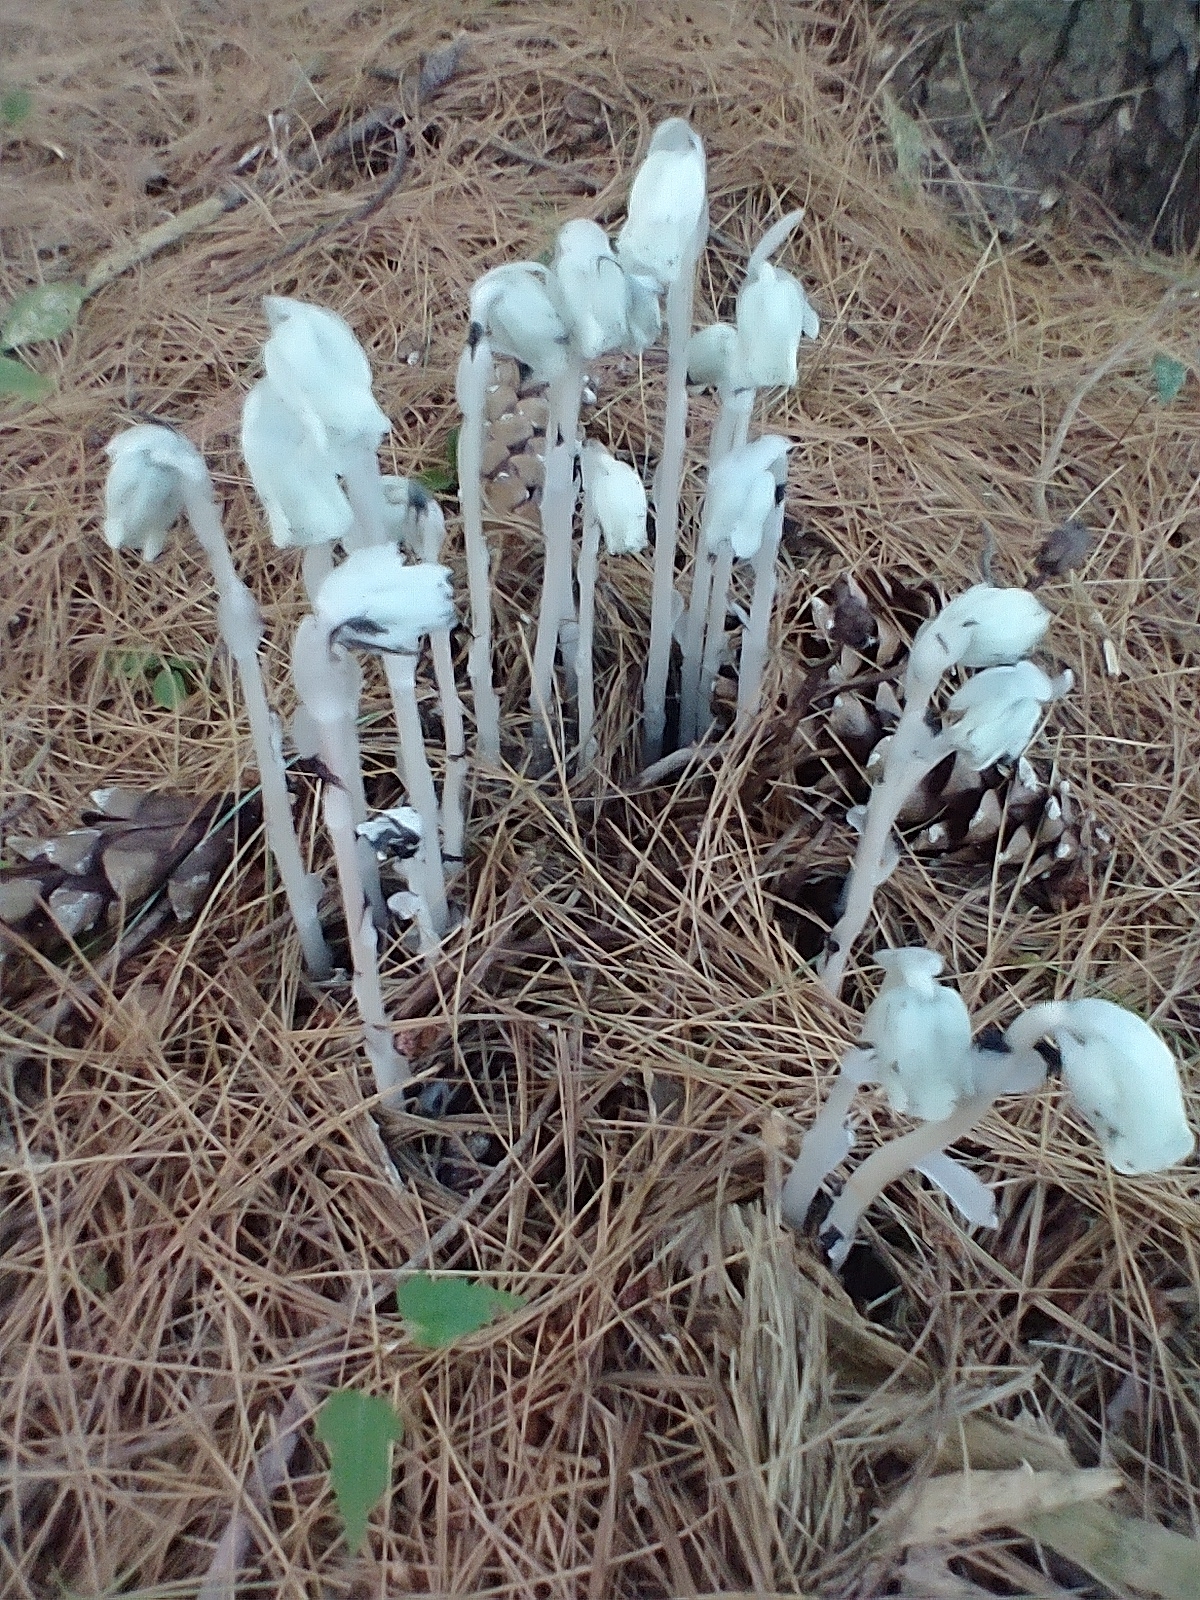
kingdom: Plantae
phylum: Tracheophyta
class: Magnoliopsida
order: Ericales
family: Ericaceae
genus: Monotropa
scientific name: Monotropa uniflora
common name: Convulsion root
